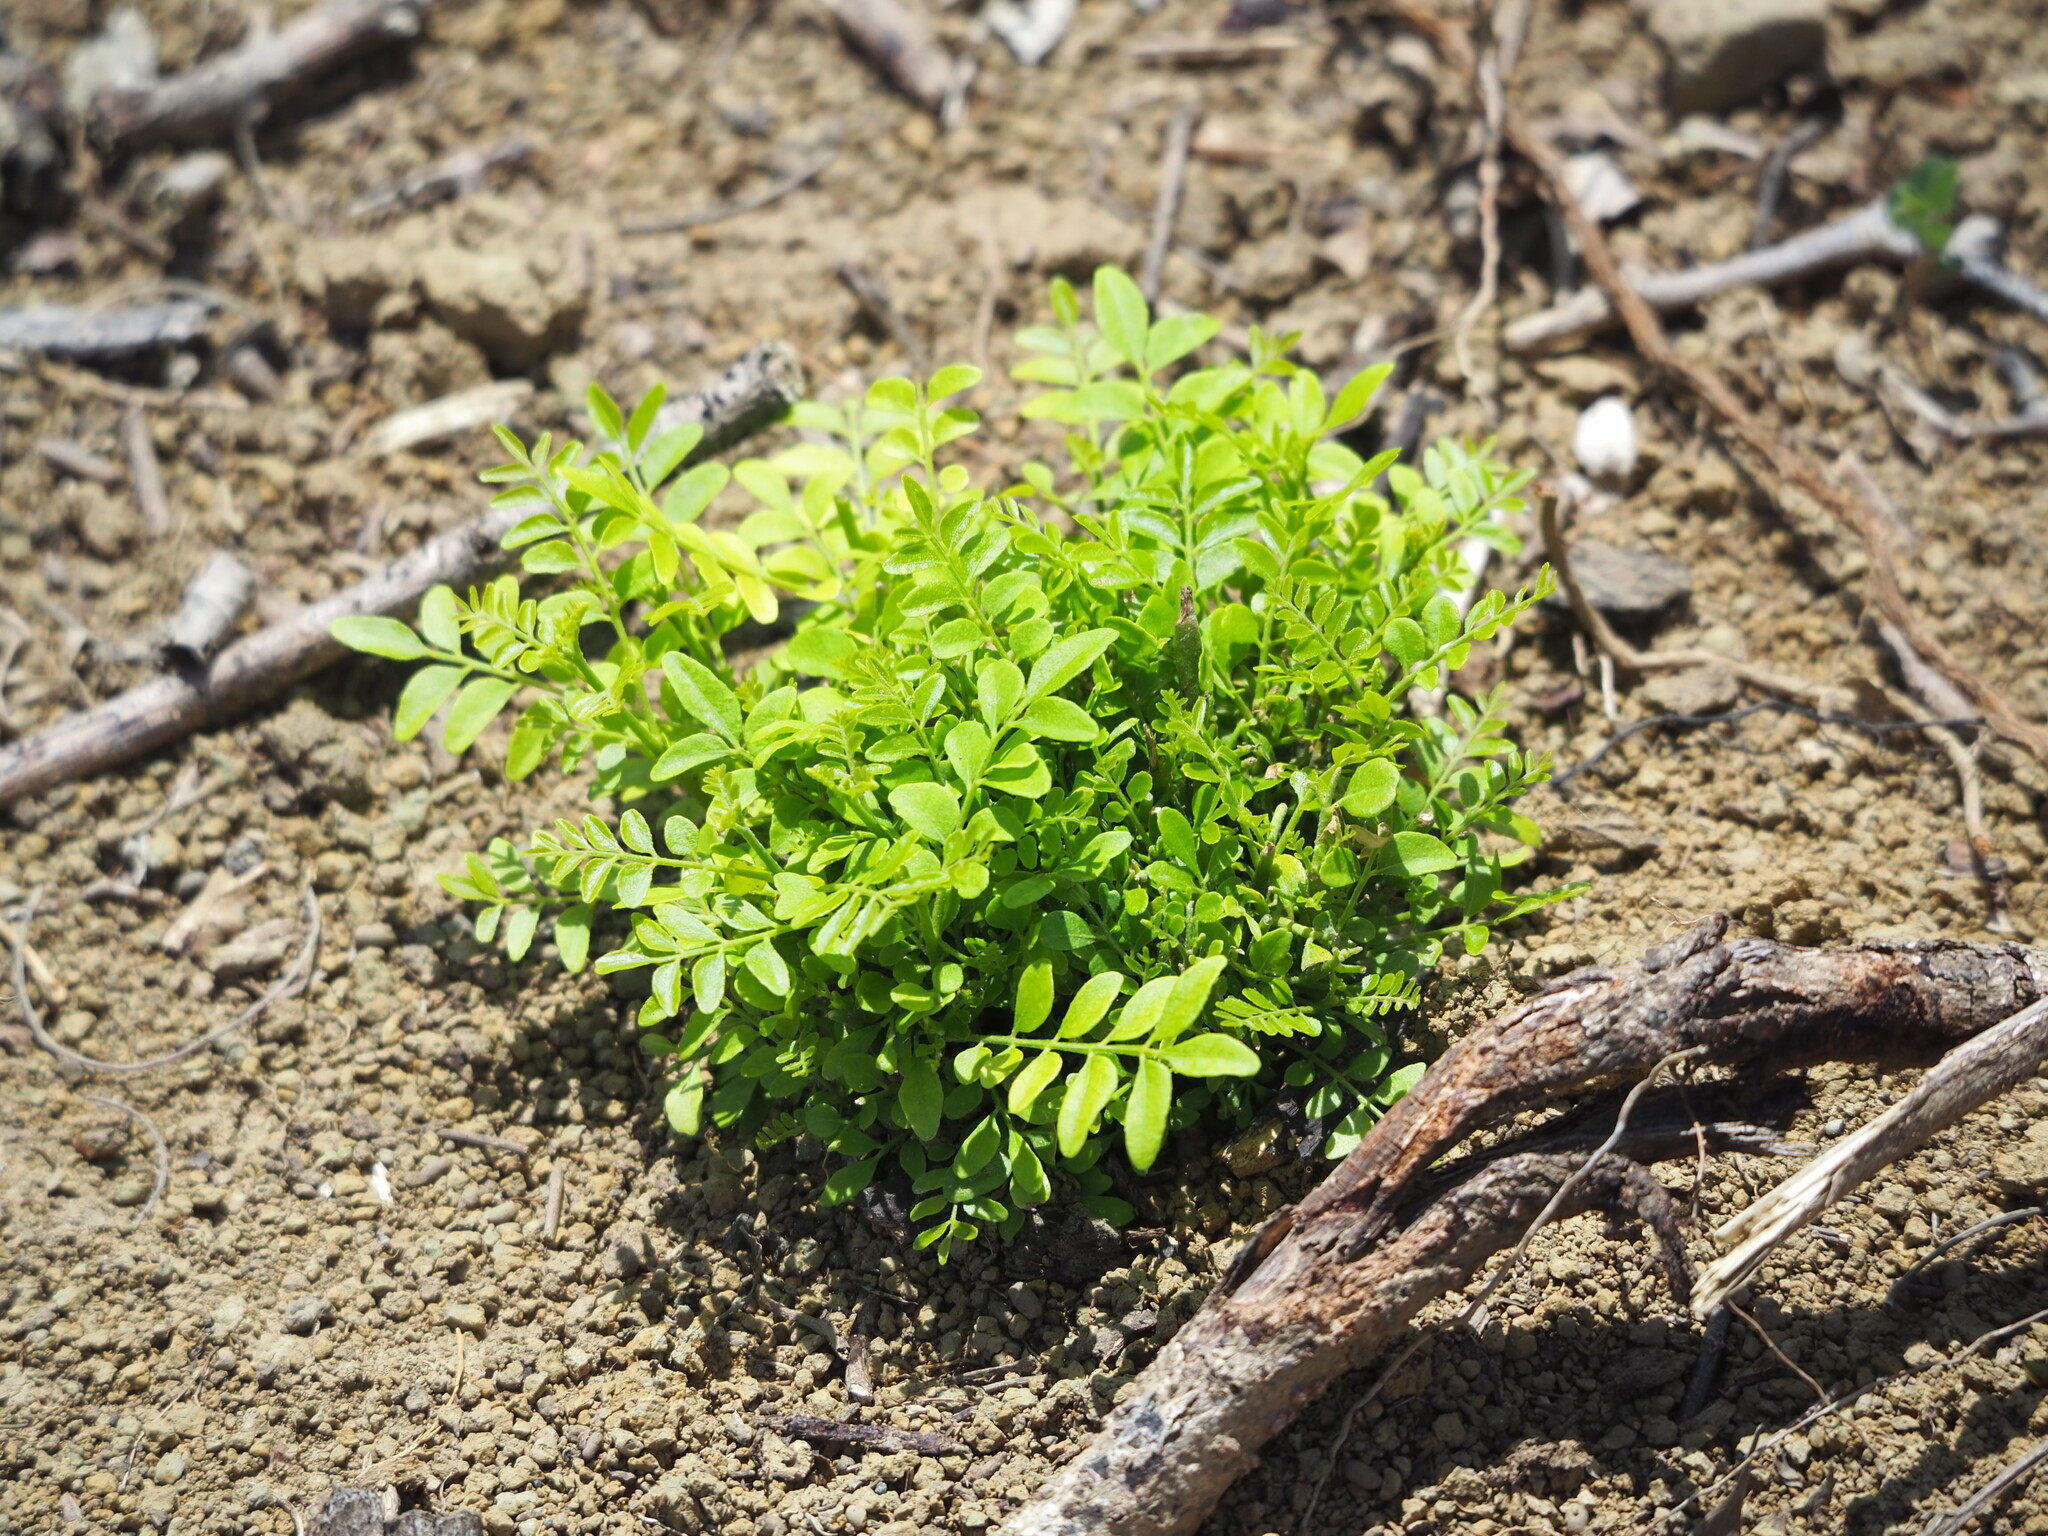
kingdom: Plantae
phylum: Tracheophyta
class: Magnoliopsida
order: Sapindales
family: Rutaceae
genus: Clausena
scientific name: Clausena excavata
